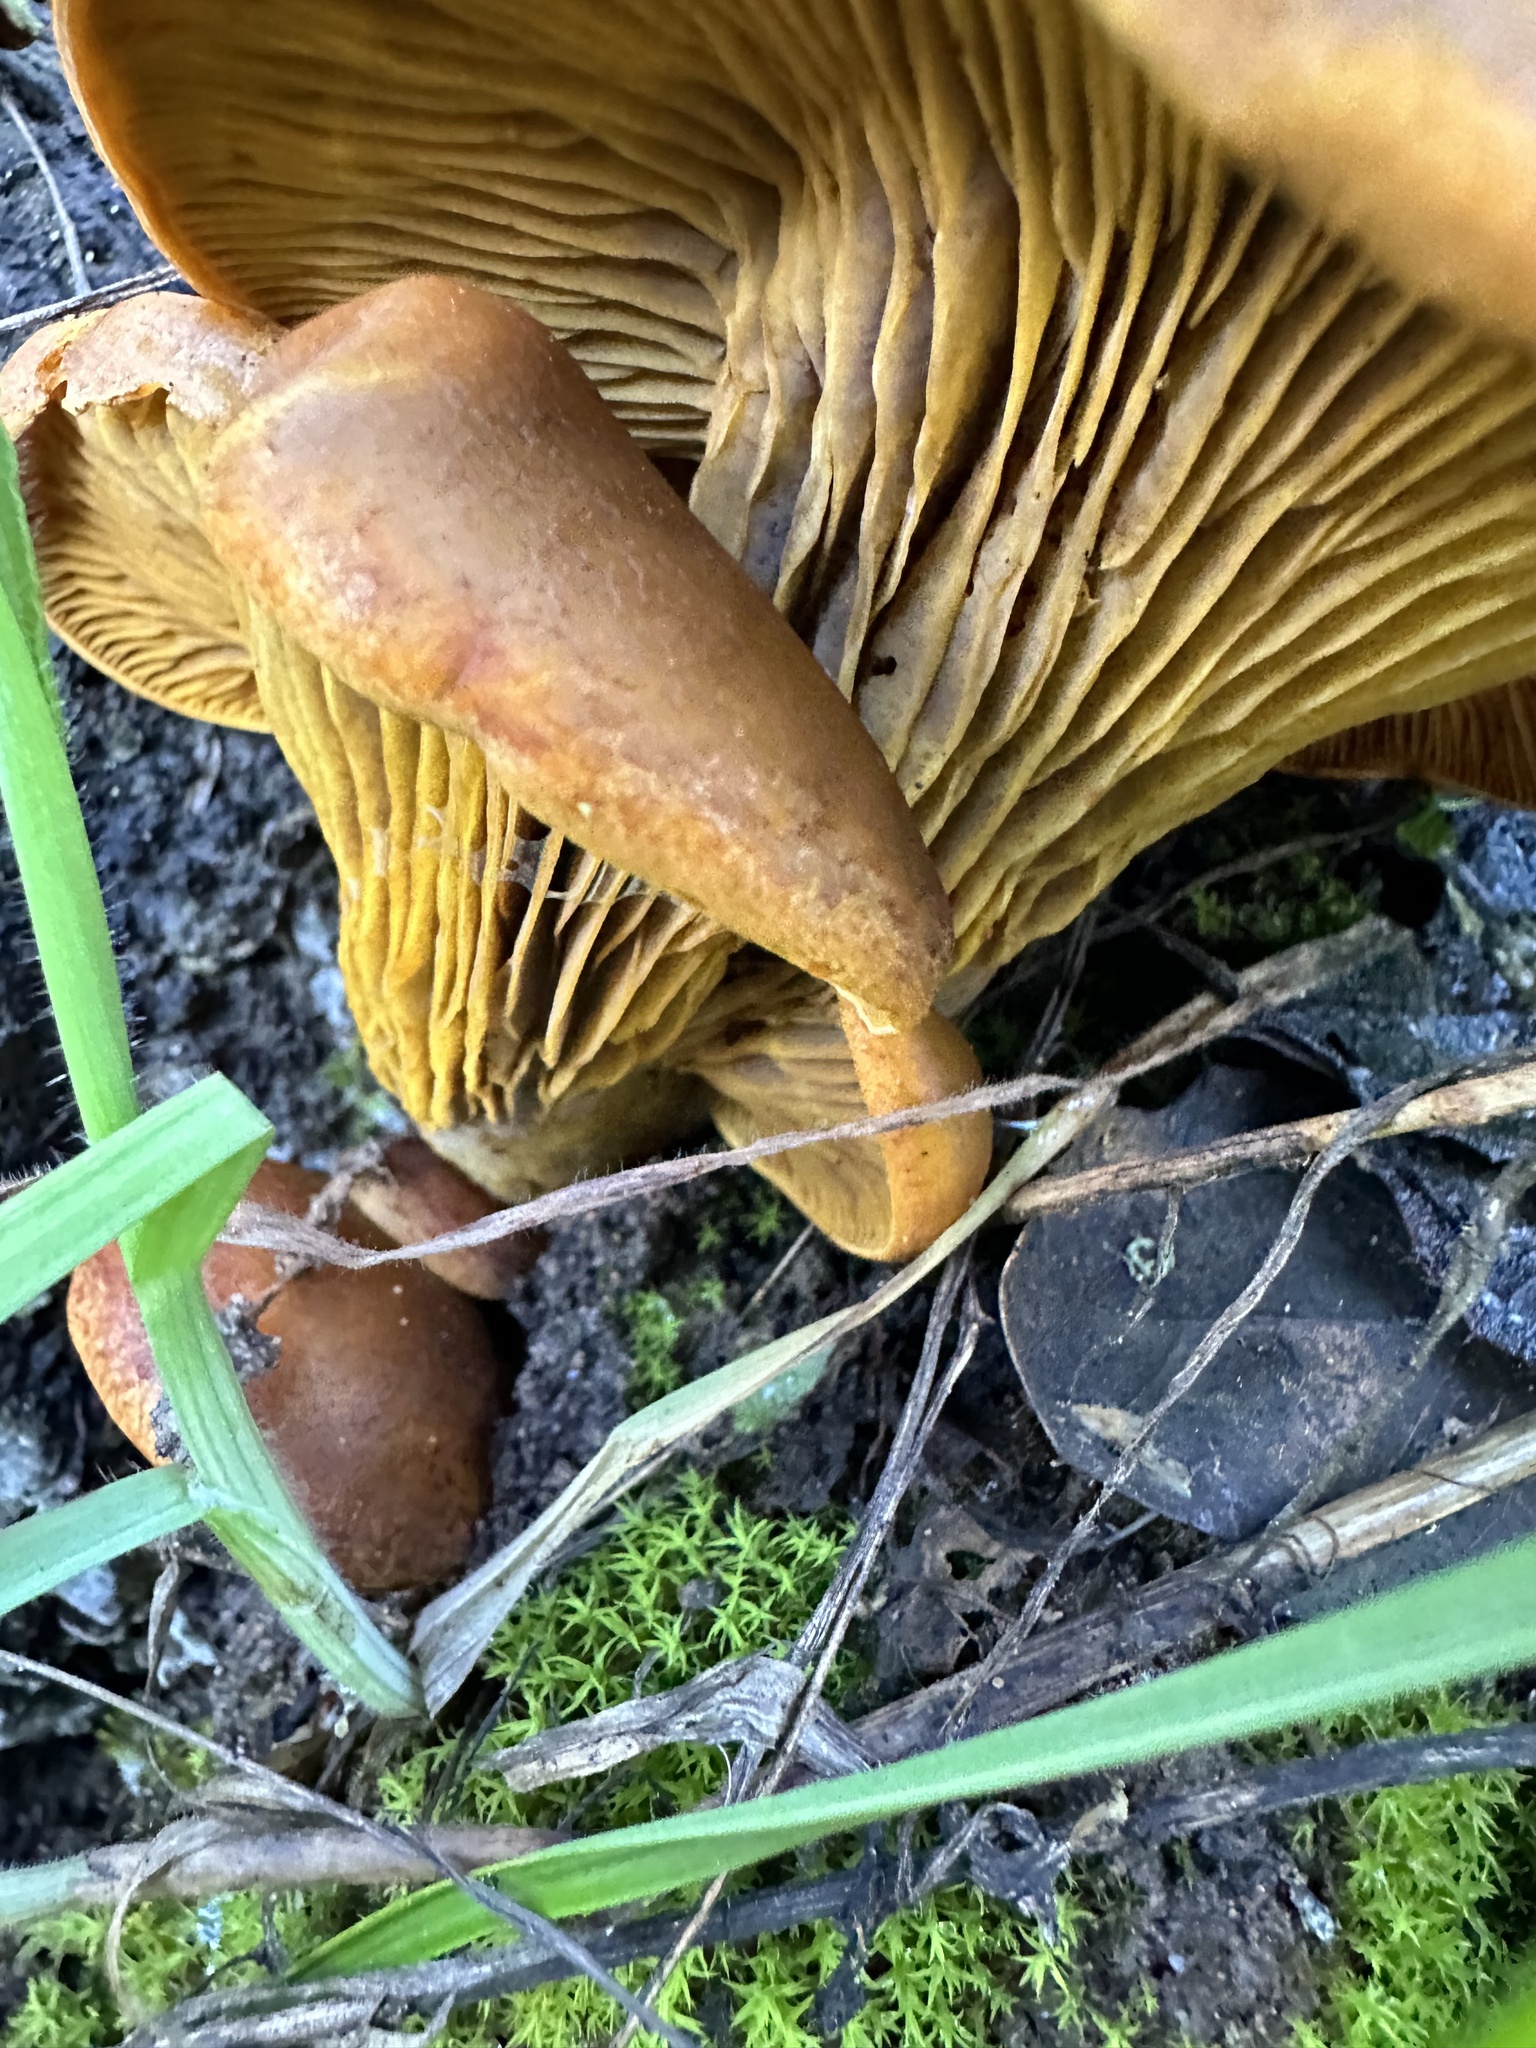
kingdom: Fungi
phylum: Basidiomycota
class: Agaricomycetes
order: Agaricales
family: Omphalotaceae
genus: Omphalotus
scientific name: Omphalotus olivascens
